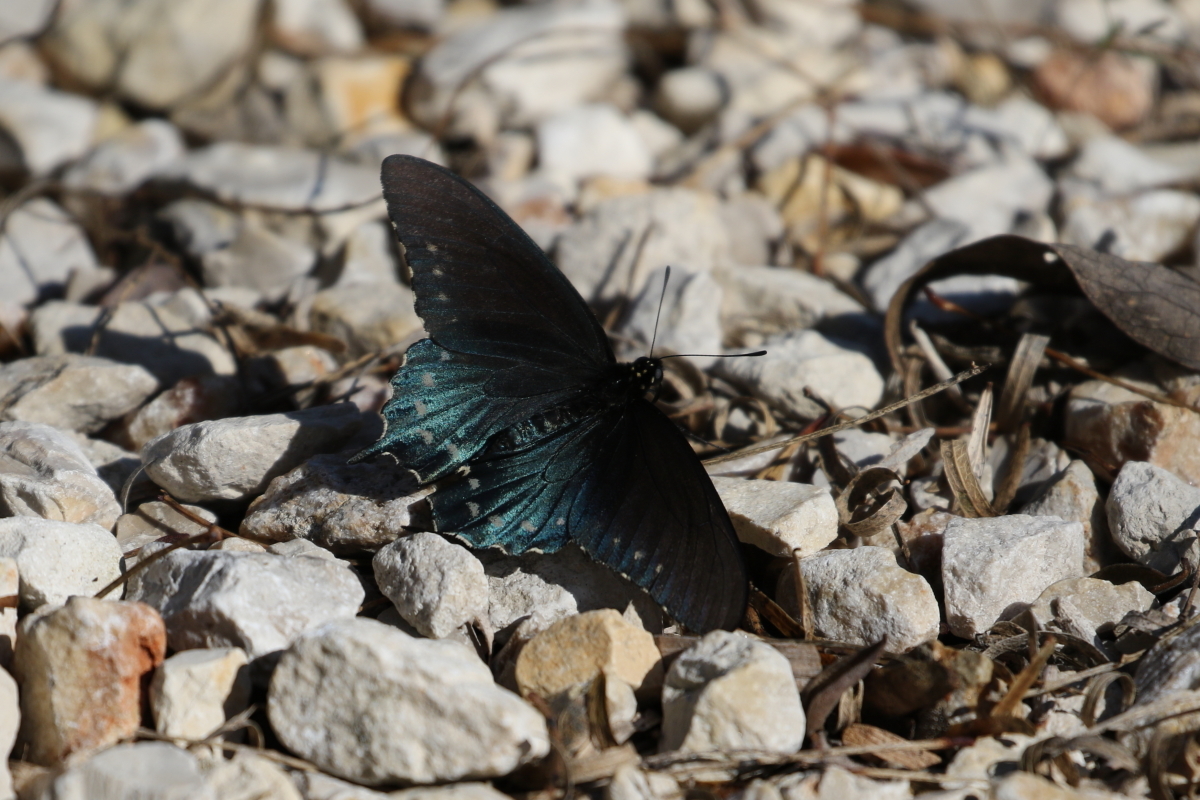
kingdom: Animalia
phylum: Arthropoda
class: Insecta
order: Lepidoptera
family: Papilionidae
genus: Battus
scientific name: Battus philenor
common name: Pipevine swallowtail
